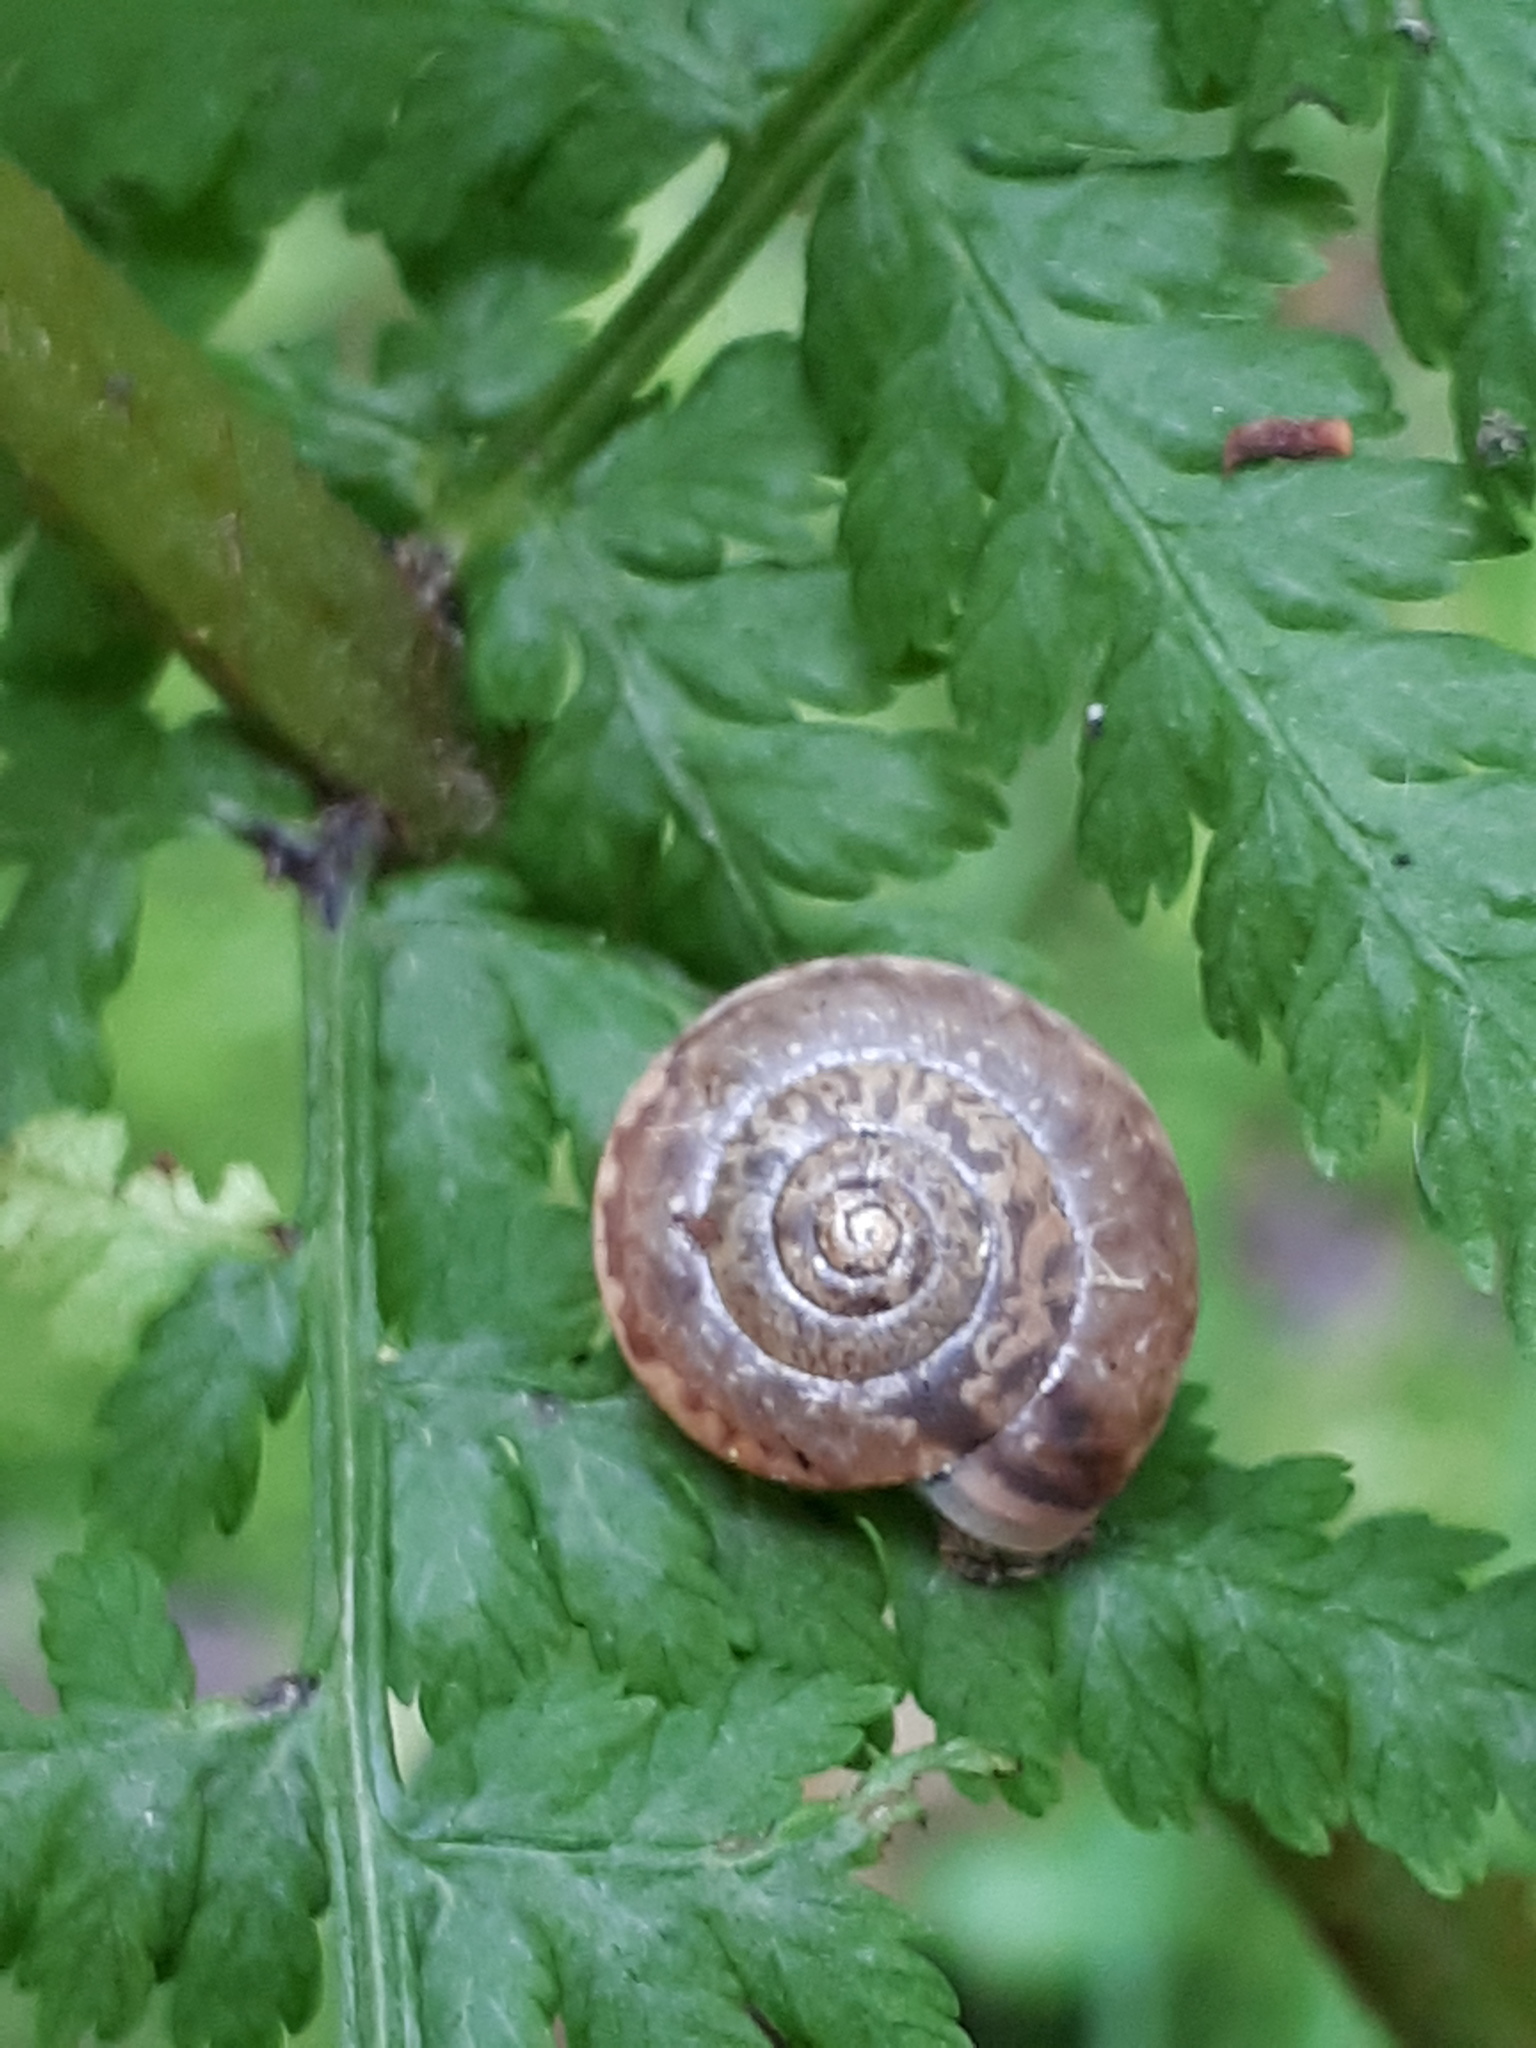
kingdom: Animalia
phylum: Mollusca
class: Gastropoda
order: Stylommatophora
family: Hygromiidae
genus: Monachoides
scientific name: Monachoides incarnatus
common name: Incarnate snail
